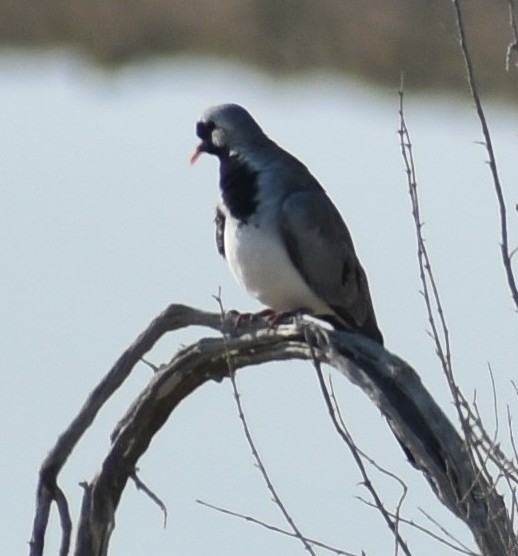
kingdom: Animalia
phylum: Chordata
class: Aves
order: Columbiformes
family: Columbidae
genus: Oena
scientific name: Oena capensis
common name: Namaqua dove
